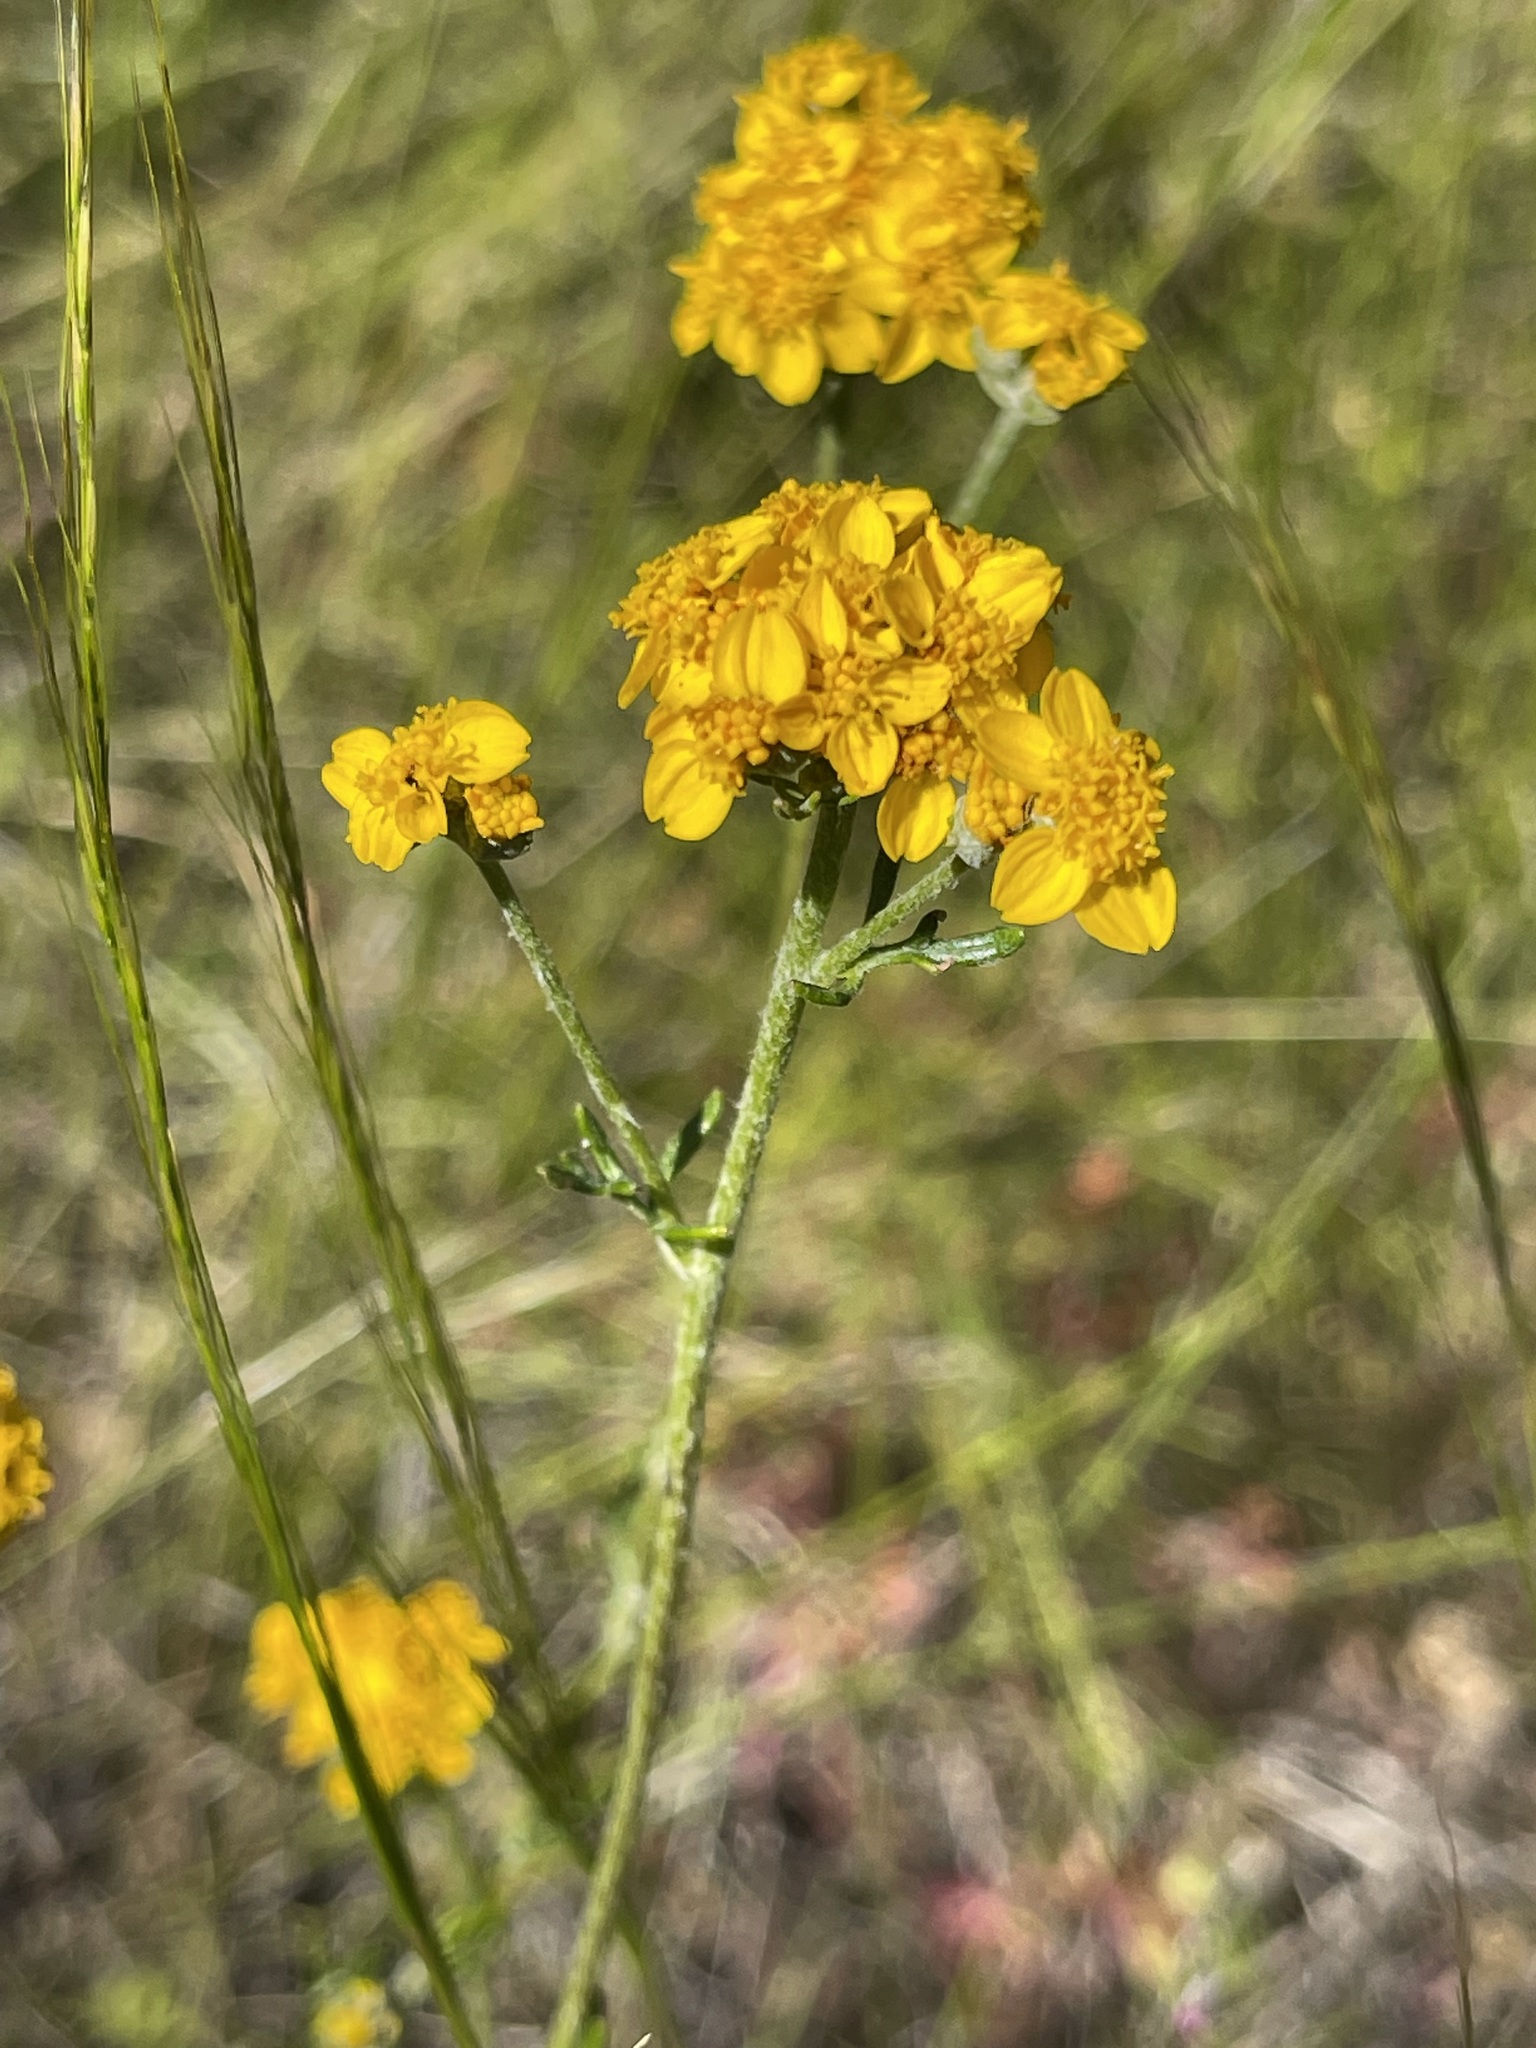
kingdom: Plantae
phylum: Tracheophyta
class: Magnoliopsida
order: Asterales
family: Asteraceae
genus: Eriophyllum
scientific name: Eriophyllum confertiflorum
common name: Golden-yarrow
